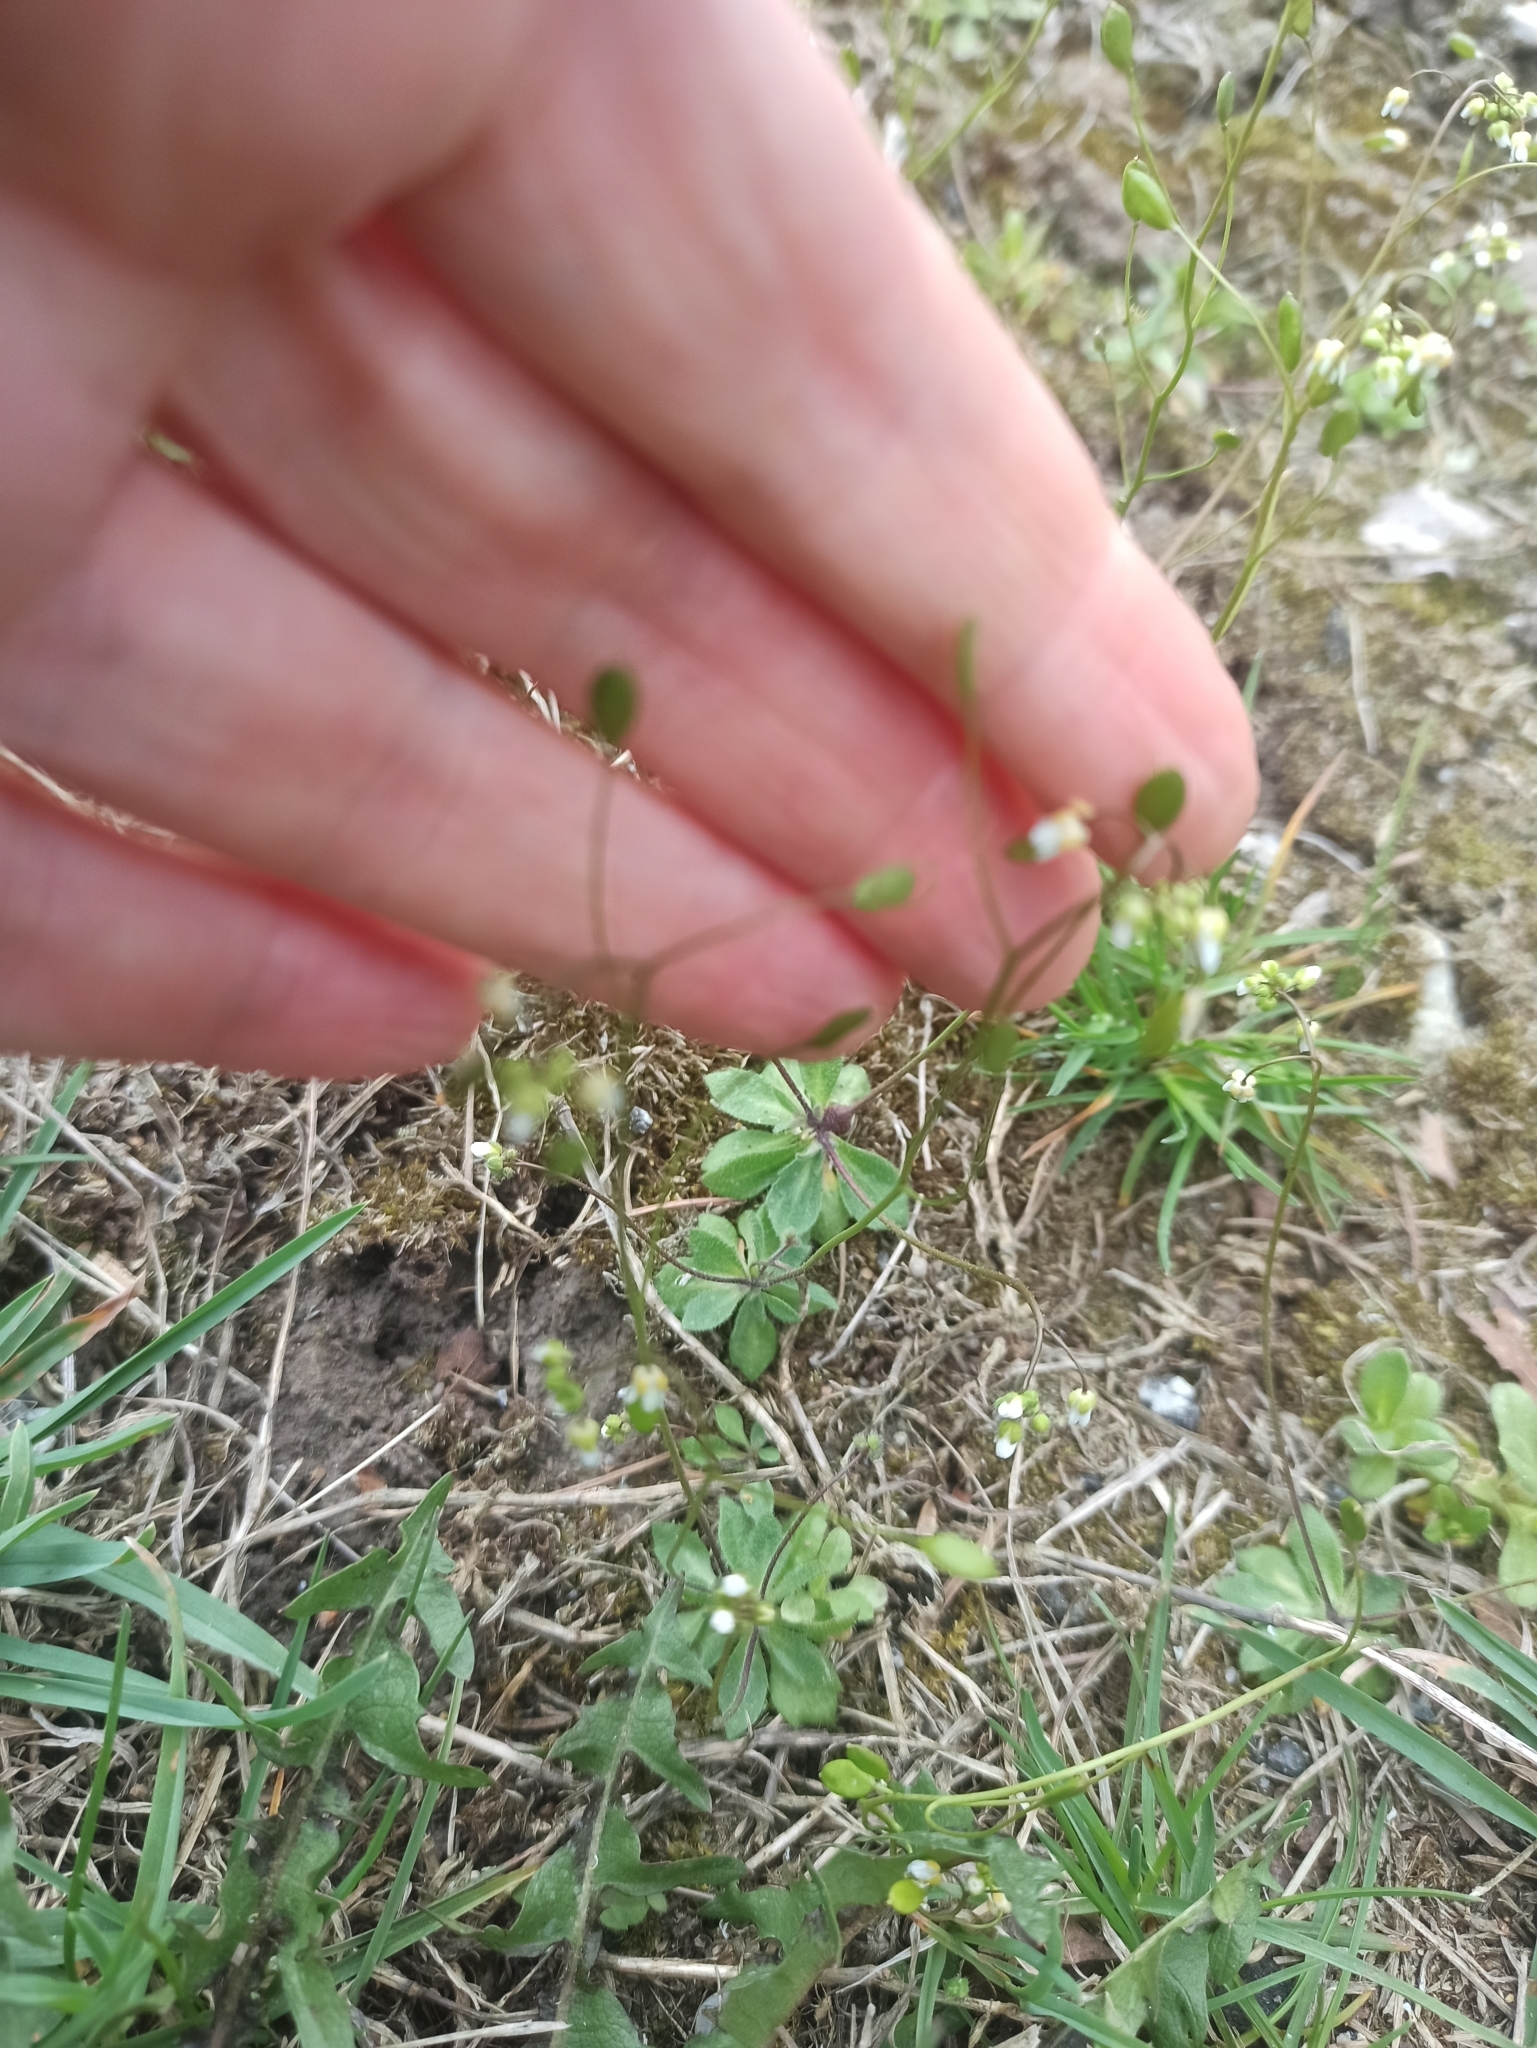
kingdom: Plantae
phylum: Tracheophyta
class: Magnoliopsida
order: Brassicales
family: Brassicaceae
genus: Draba
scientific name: Draba verna
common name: Spring draba
